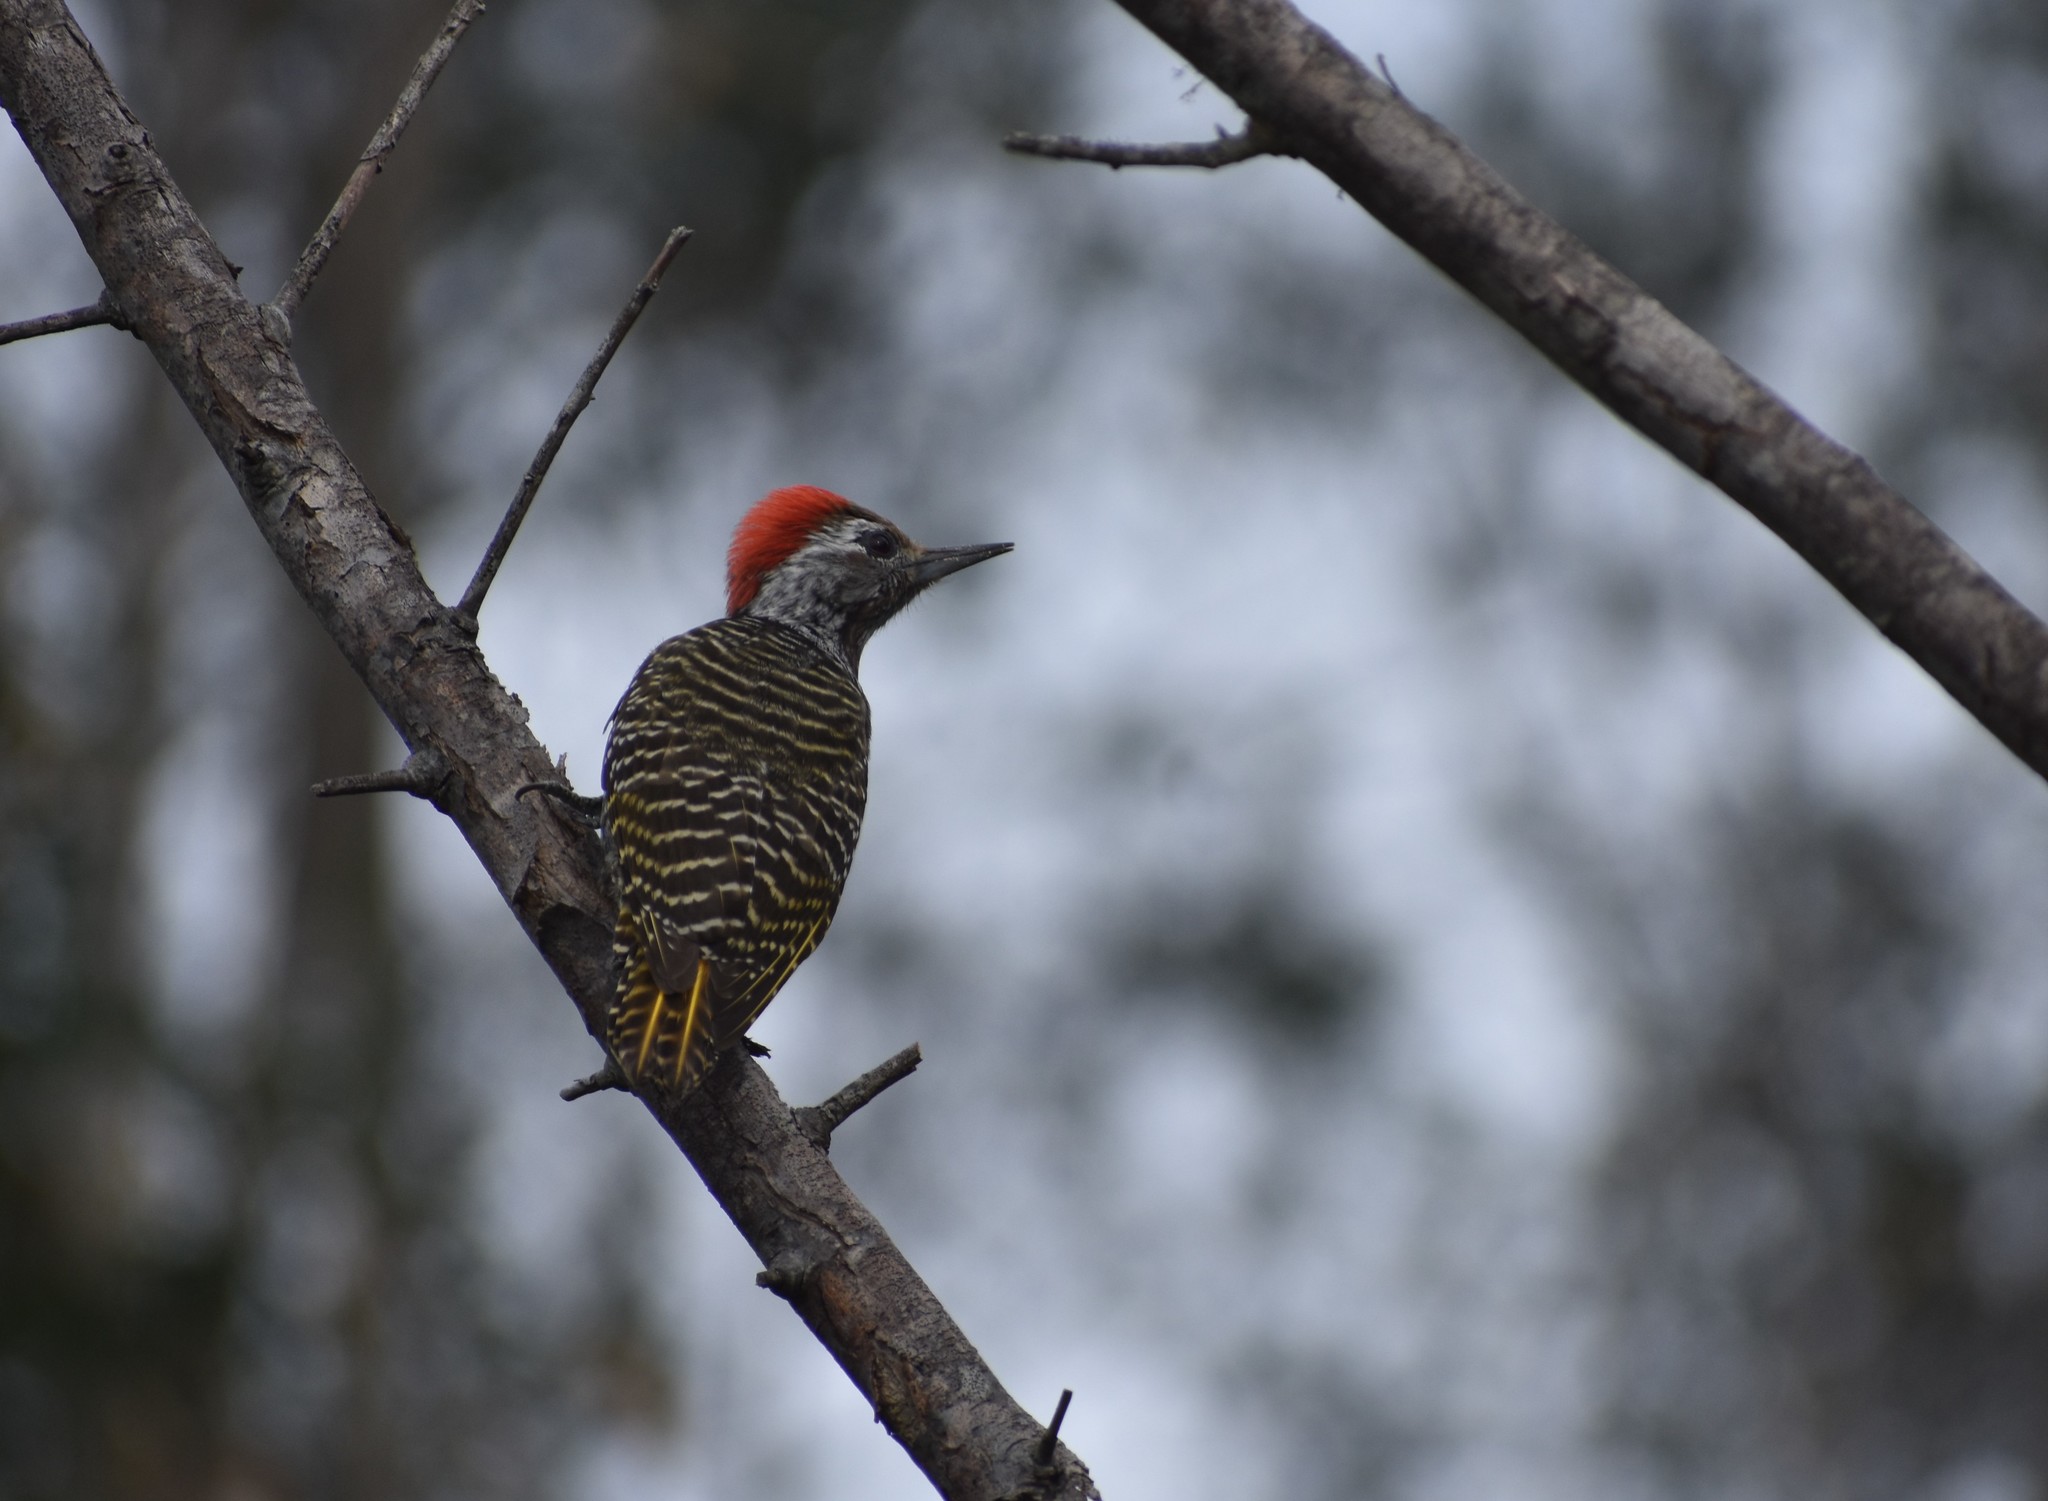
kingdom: Animalia
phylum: Chordata
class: Aves
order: Piciformes
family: Picidae
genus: Dendropicos
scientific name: Dendropicos fuscescens
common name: Cardinal woodpecker
